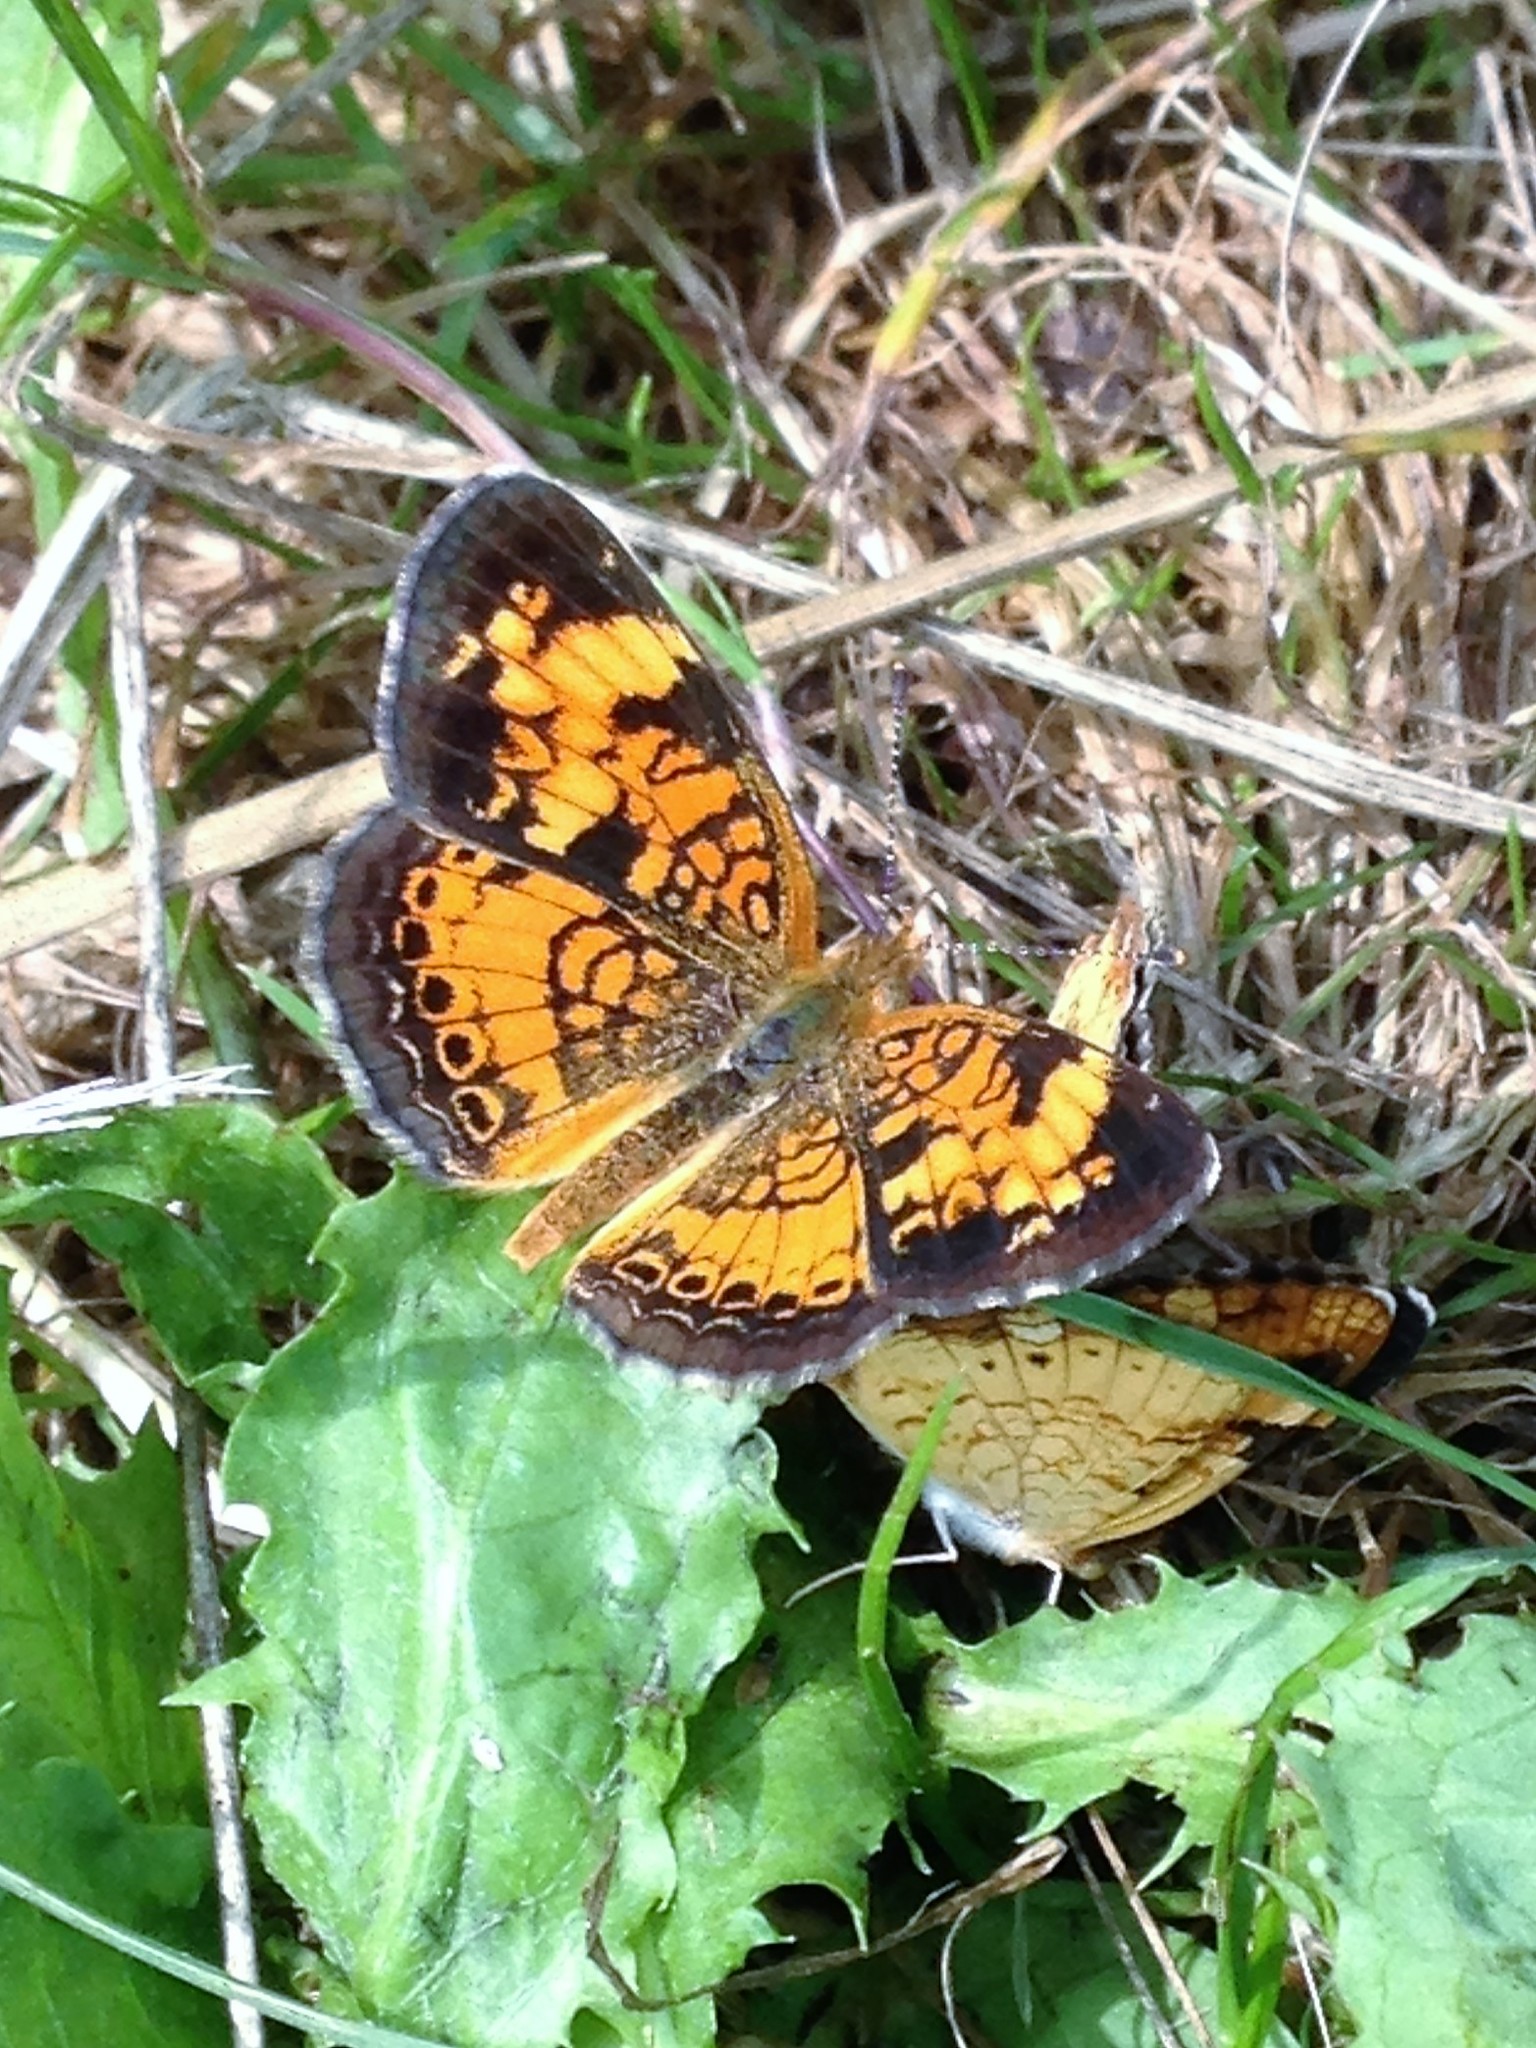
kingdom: Animalia
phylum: Arthropoda
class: Insecta
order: Lepidoptera
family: Nymphalidae
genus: Phyciodes
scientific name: Phyciodes tharos
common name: Pearl crescent
